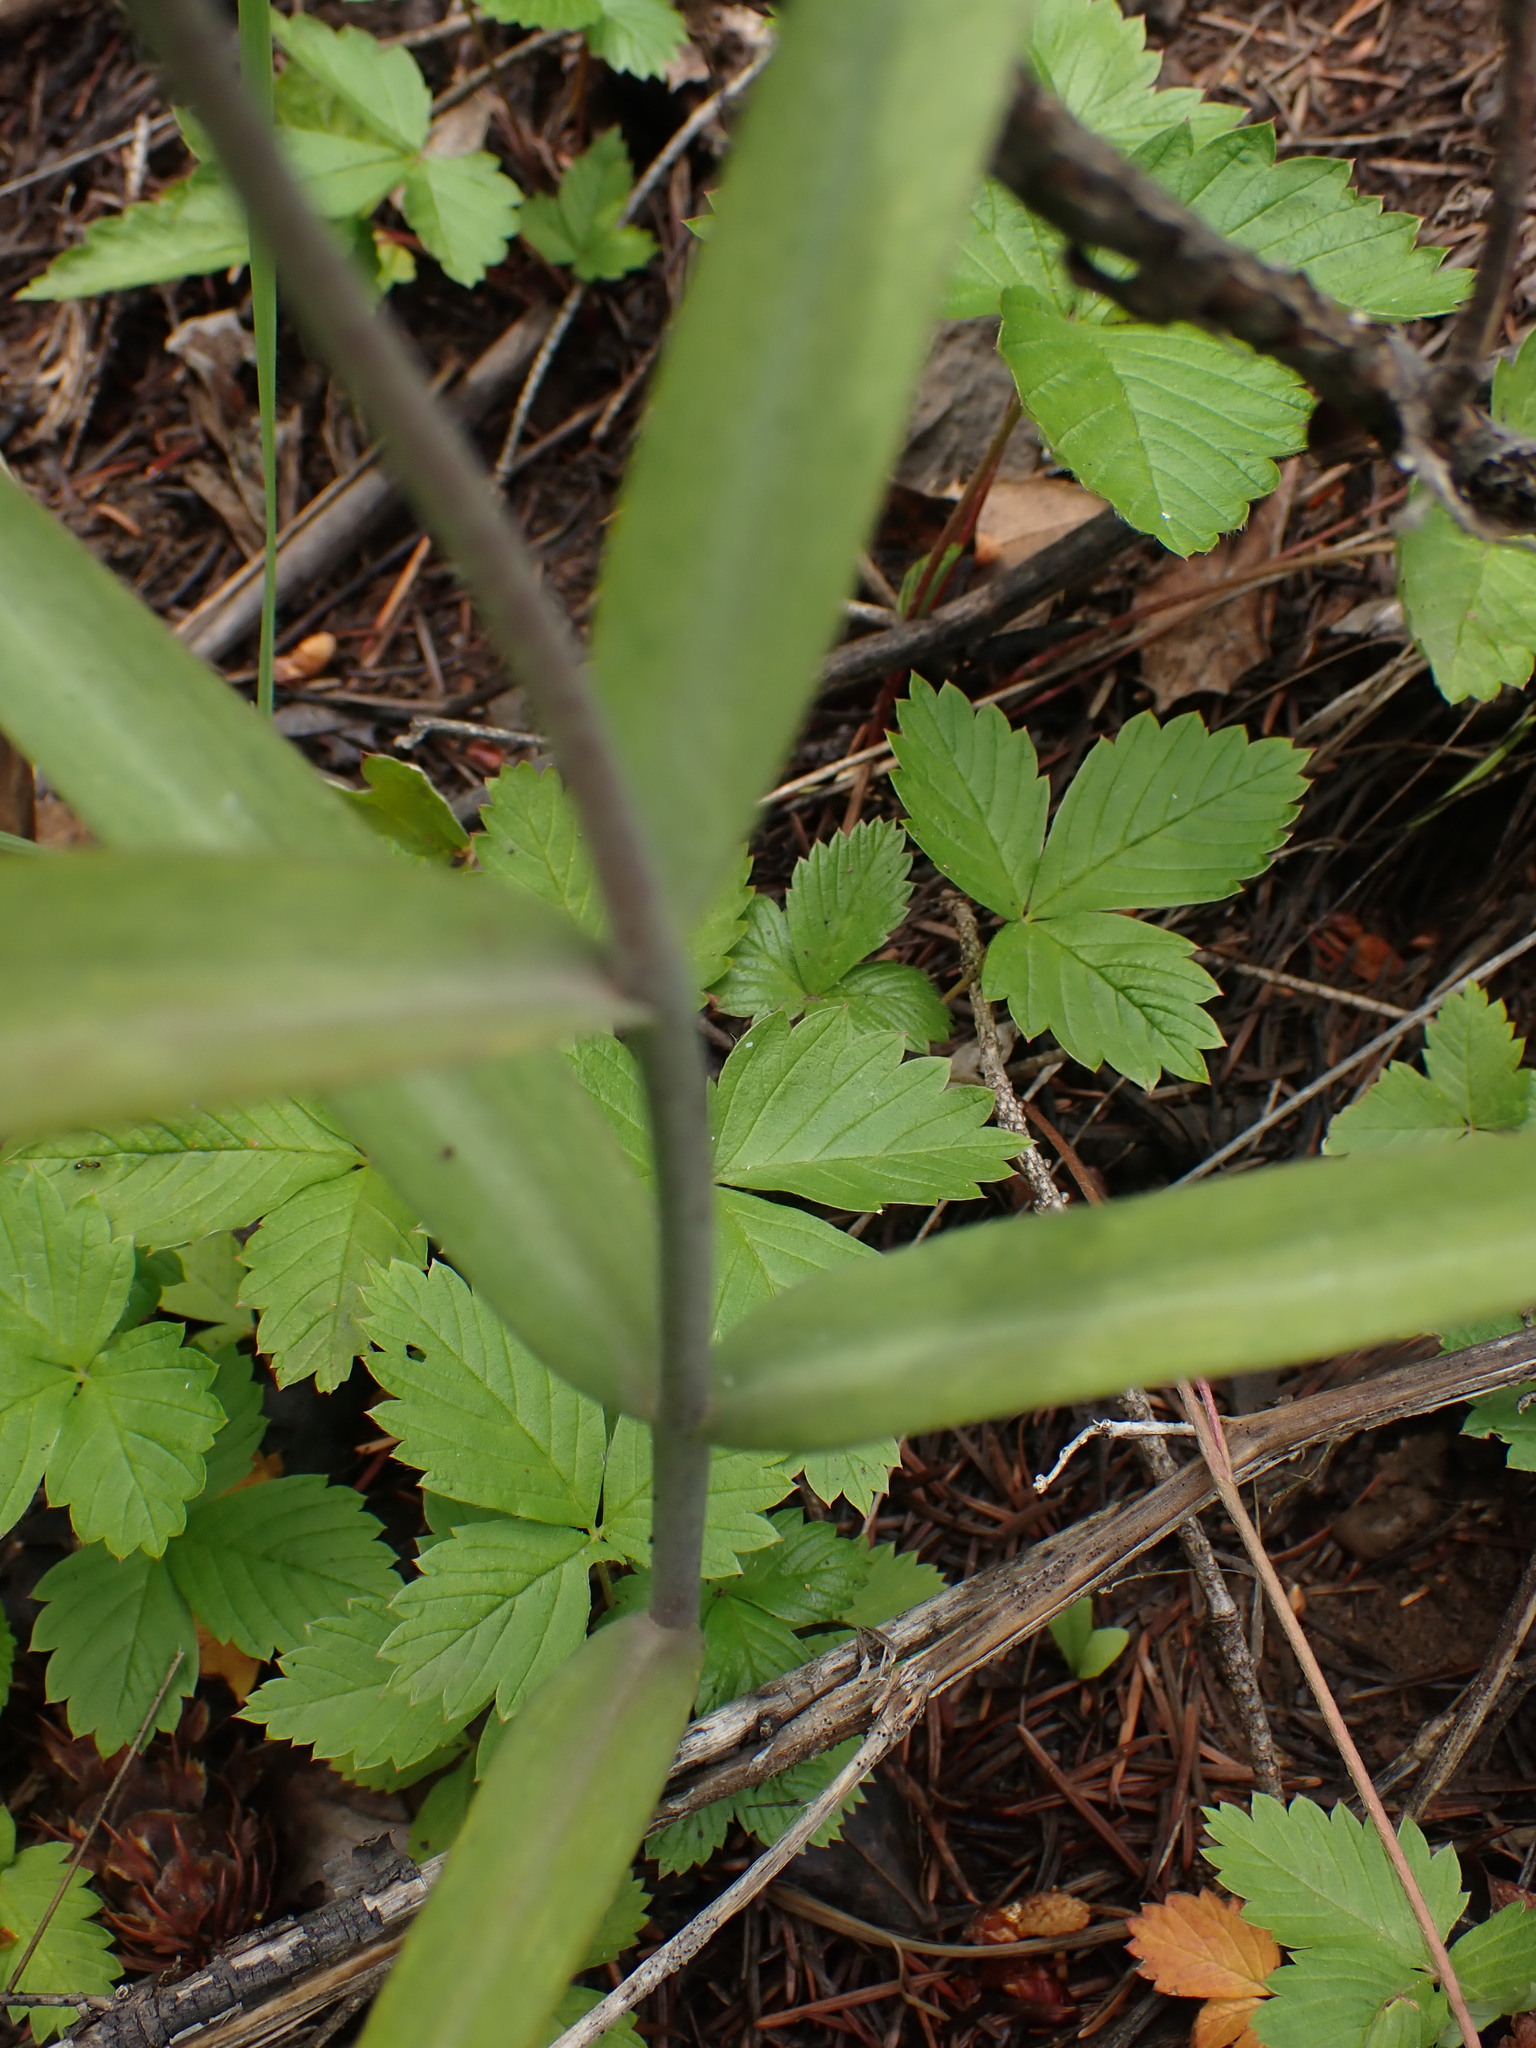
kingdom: Plantae
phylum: Tracheophyta
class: Liliopsida
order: Liliales
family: Liliaceae
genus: Fritillaria
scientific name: Fritillaria affinis
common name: Ojai fritillary
